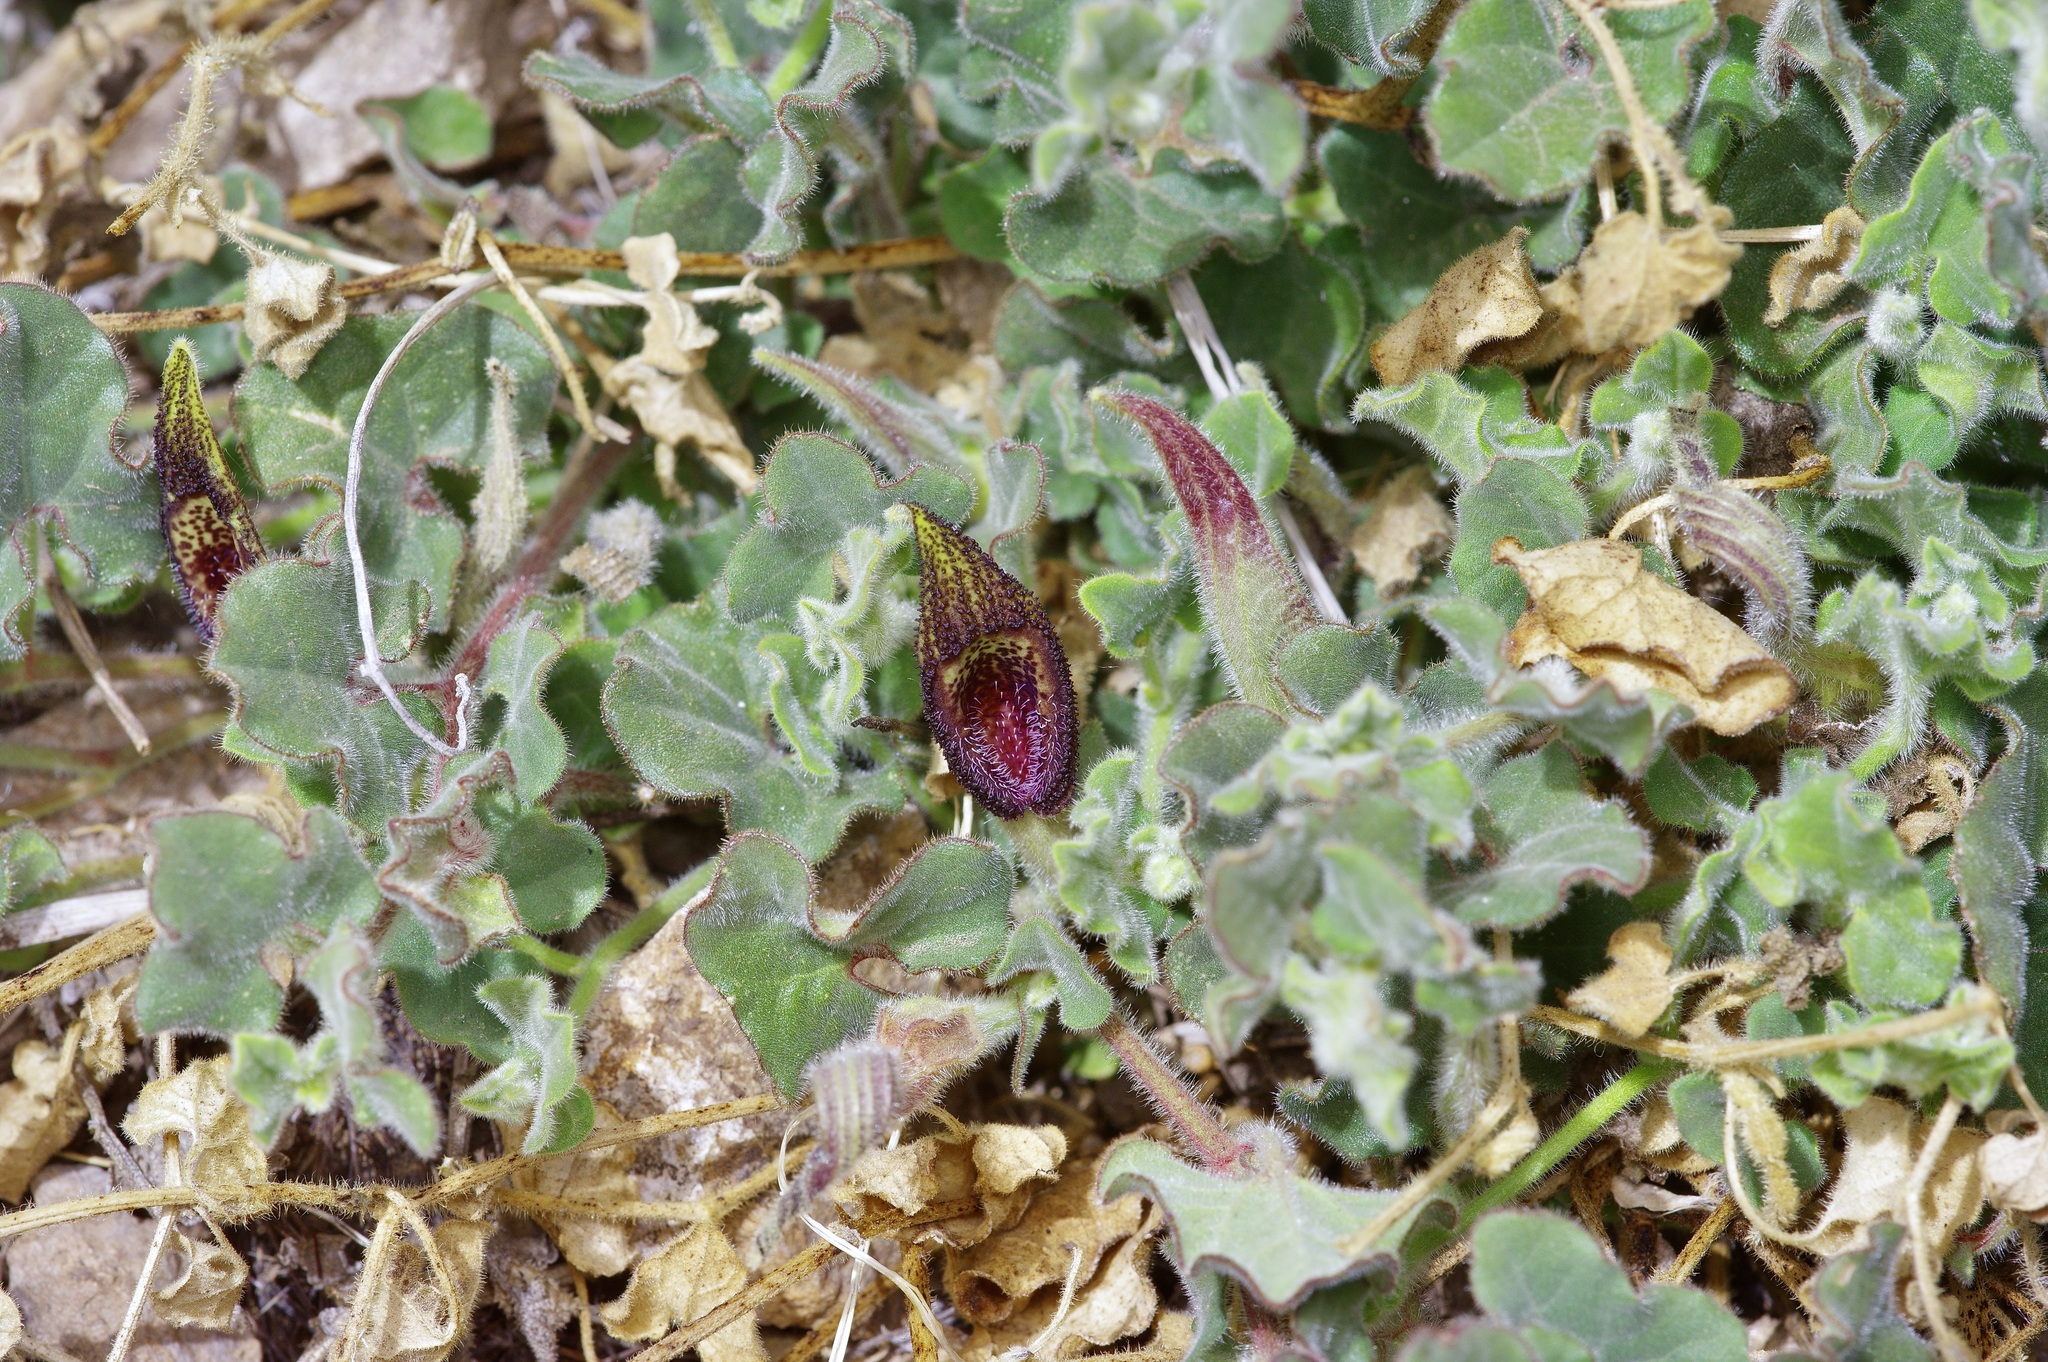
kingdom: Plantae
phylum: Tracheophyta
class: Magnoliopsida
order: Piperales
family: Aristolochiaceae
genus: Aristolochia
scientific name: Aristolochia wrightii
